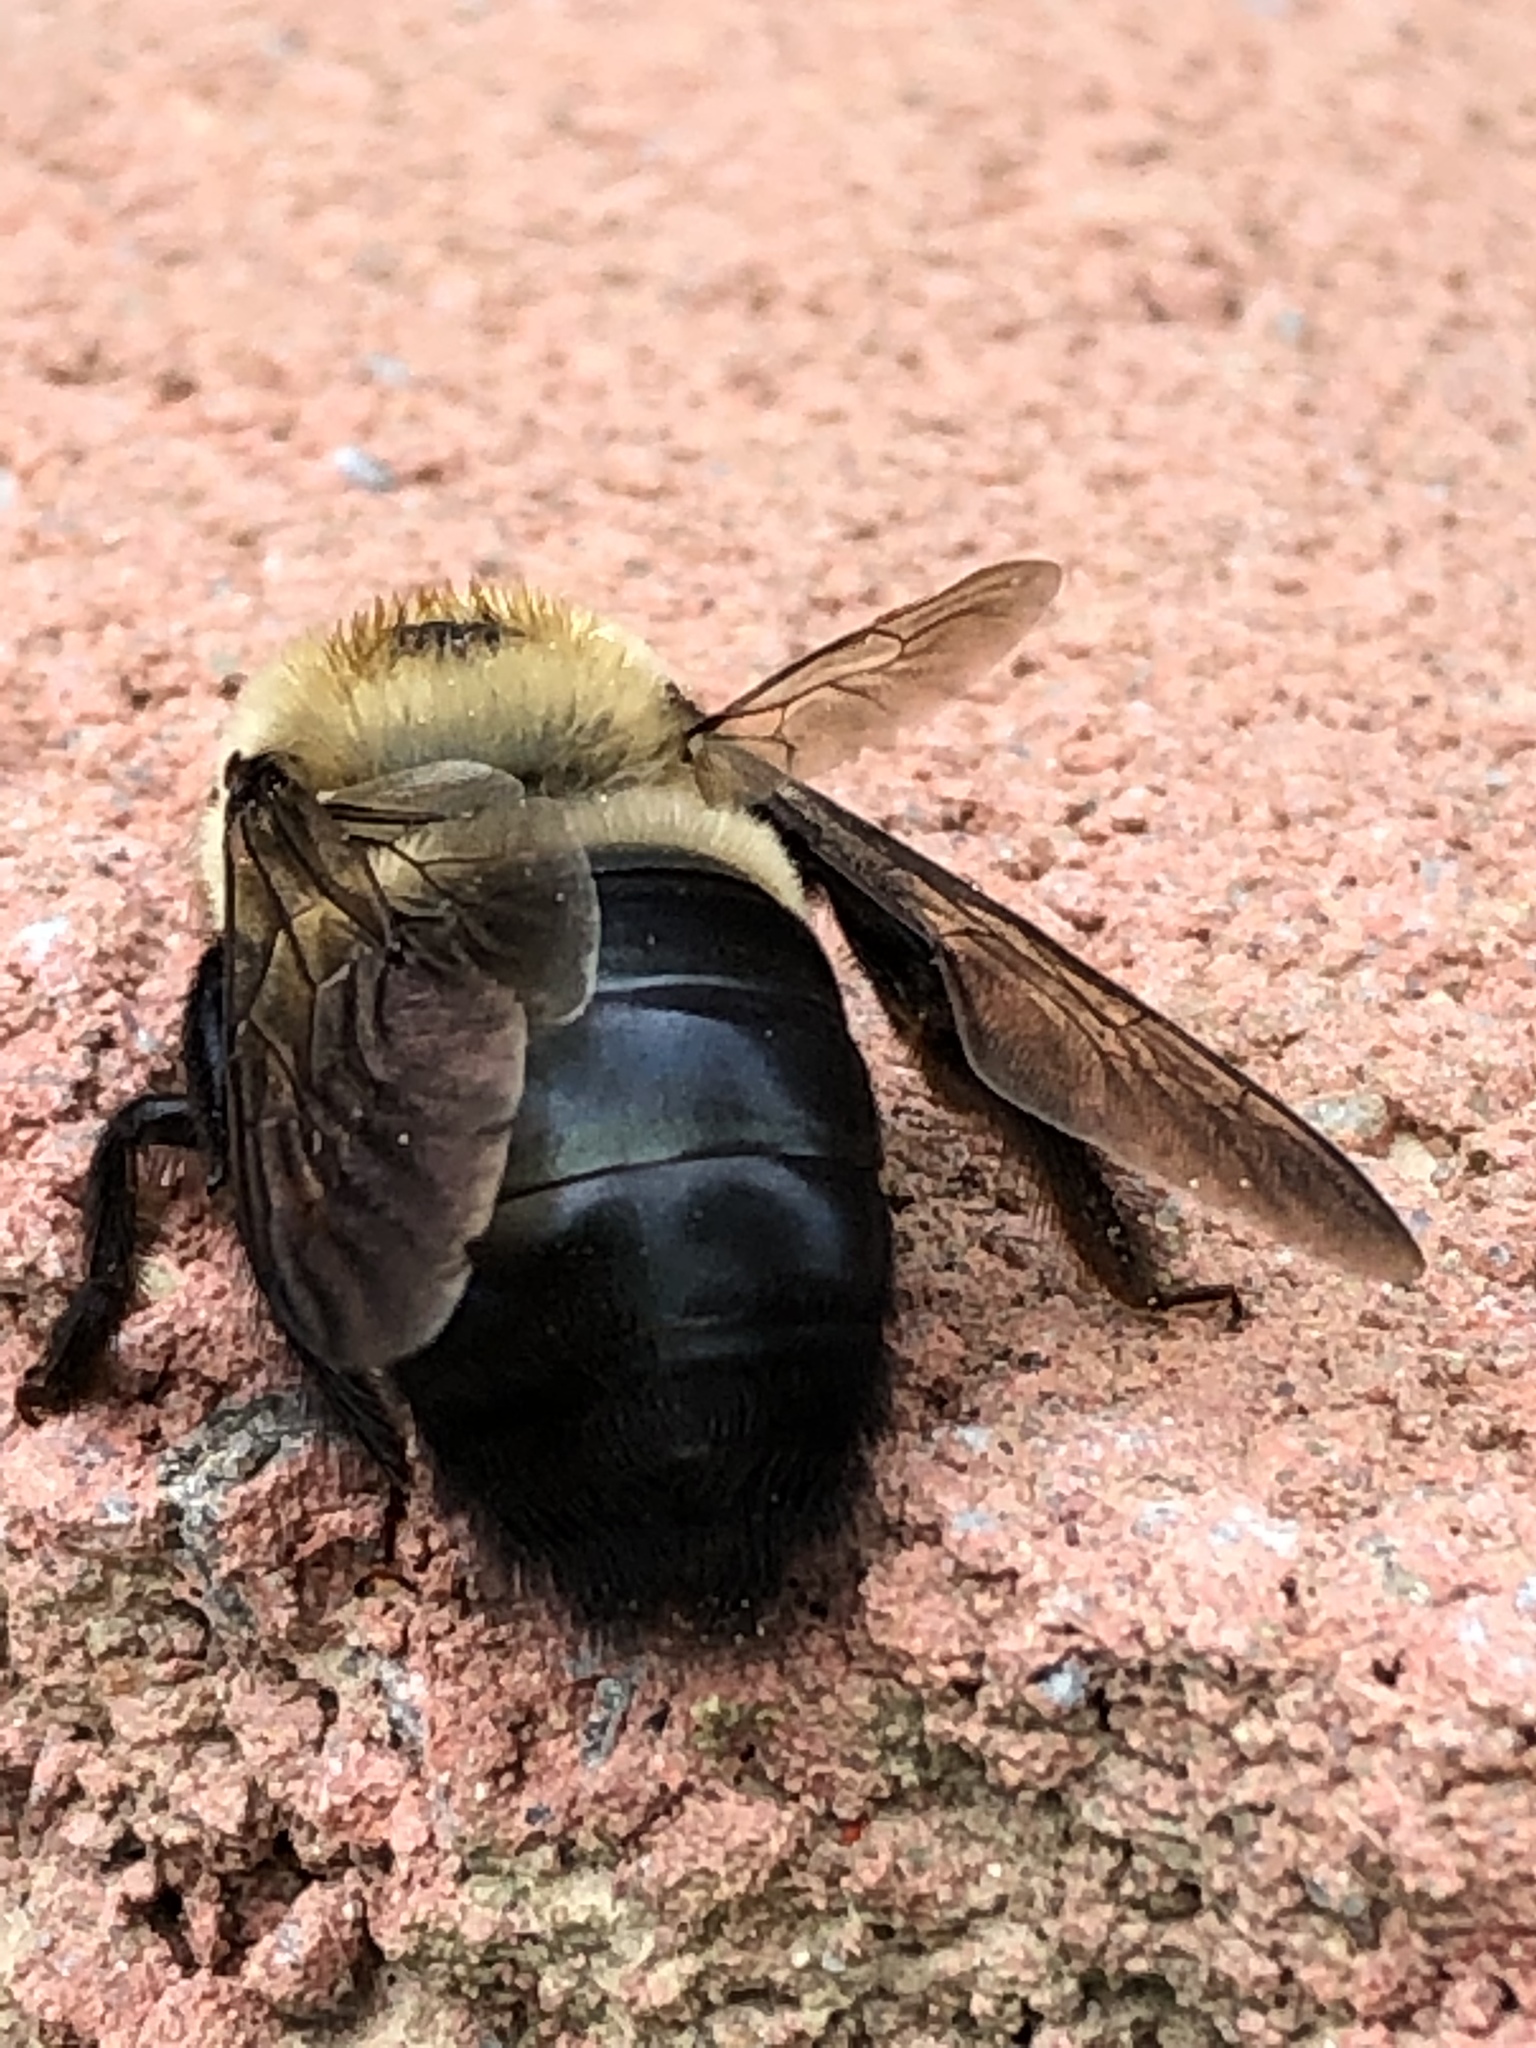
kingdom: Animalia
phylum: Arthropoda
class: Insecta
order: Hymenoptera
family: Apidae
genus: Xylocopa
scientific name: Xylocopa virginica
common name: Carpenter bee
